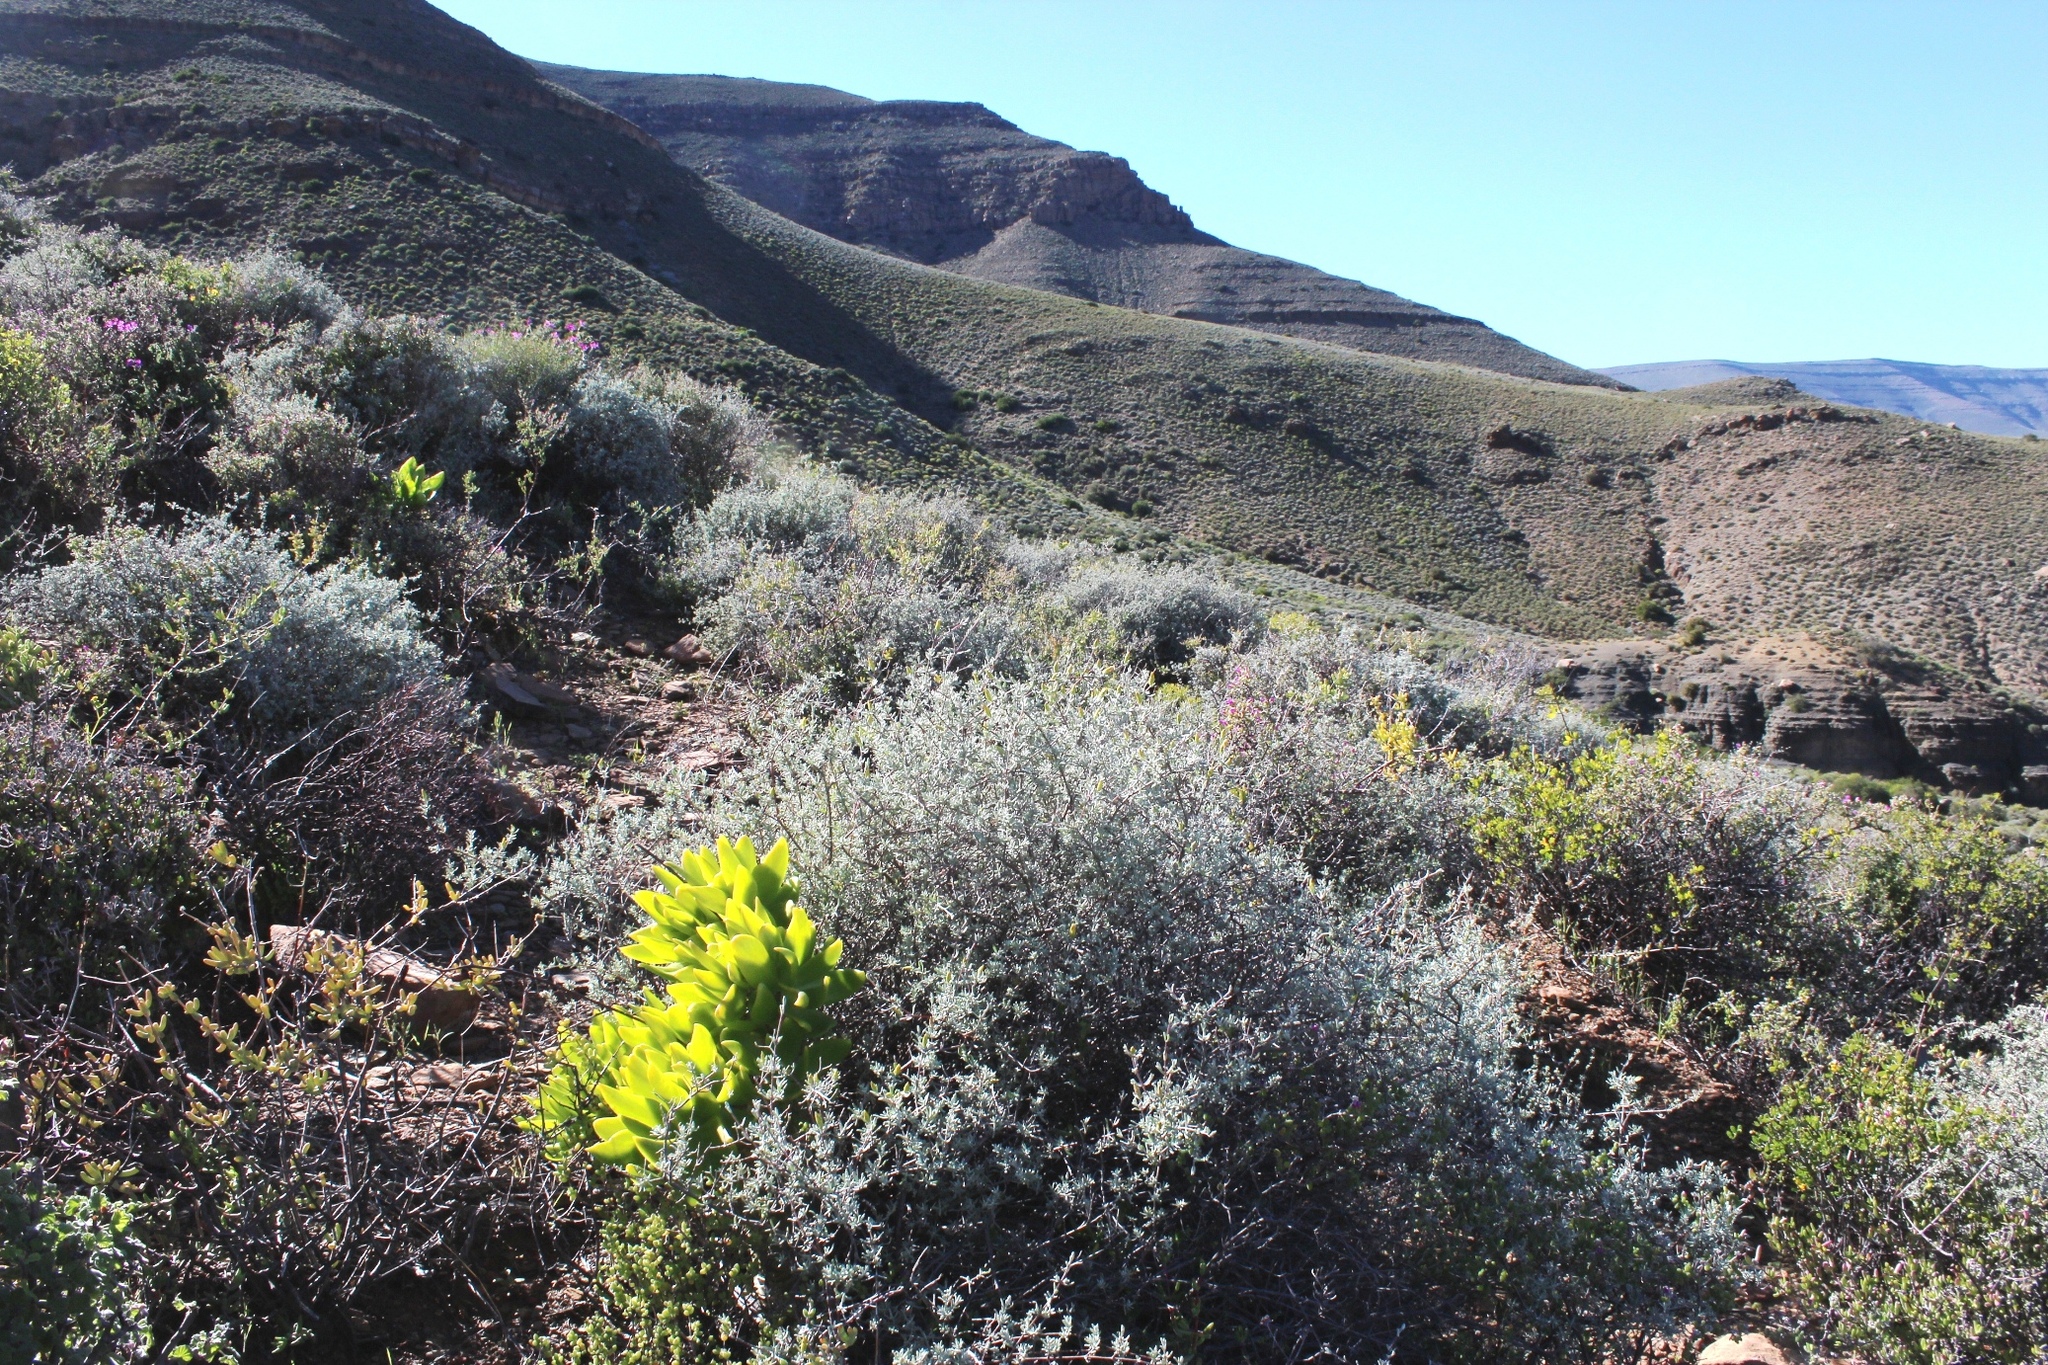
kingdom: Plantae
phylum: Tracheophyta
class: Magnoliopsida
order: Asterales
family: Asteraceae
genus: Pteronia
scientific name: Pteronia incana
